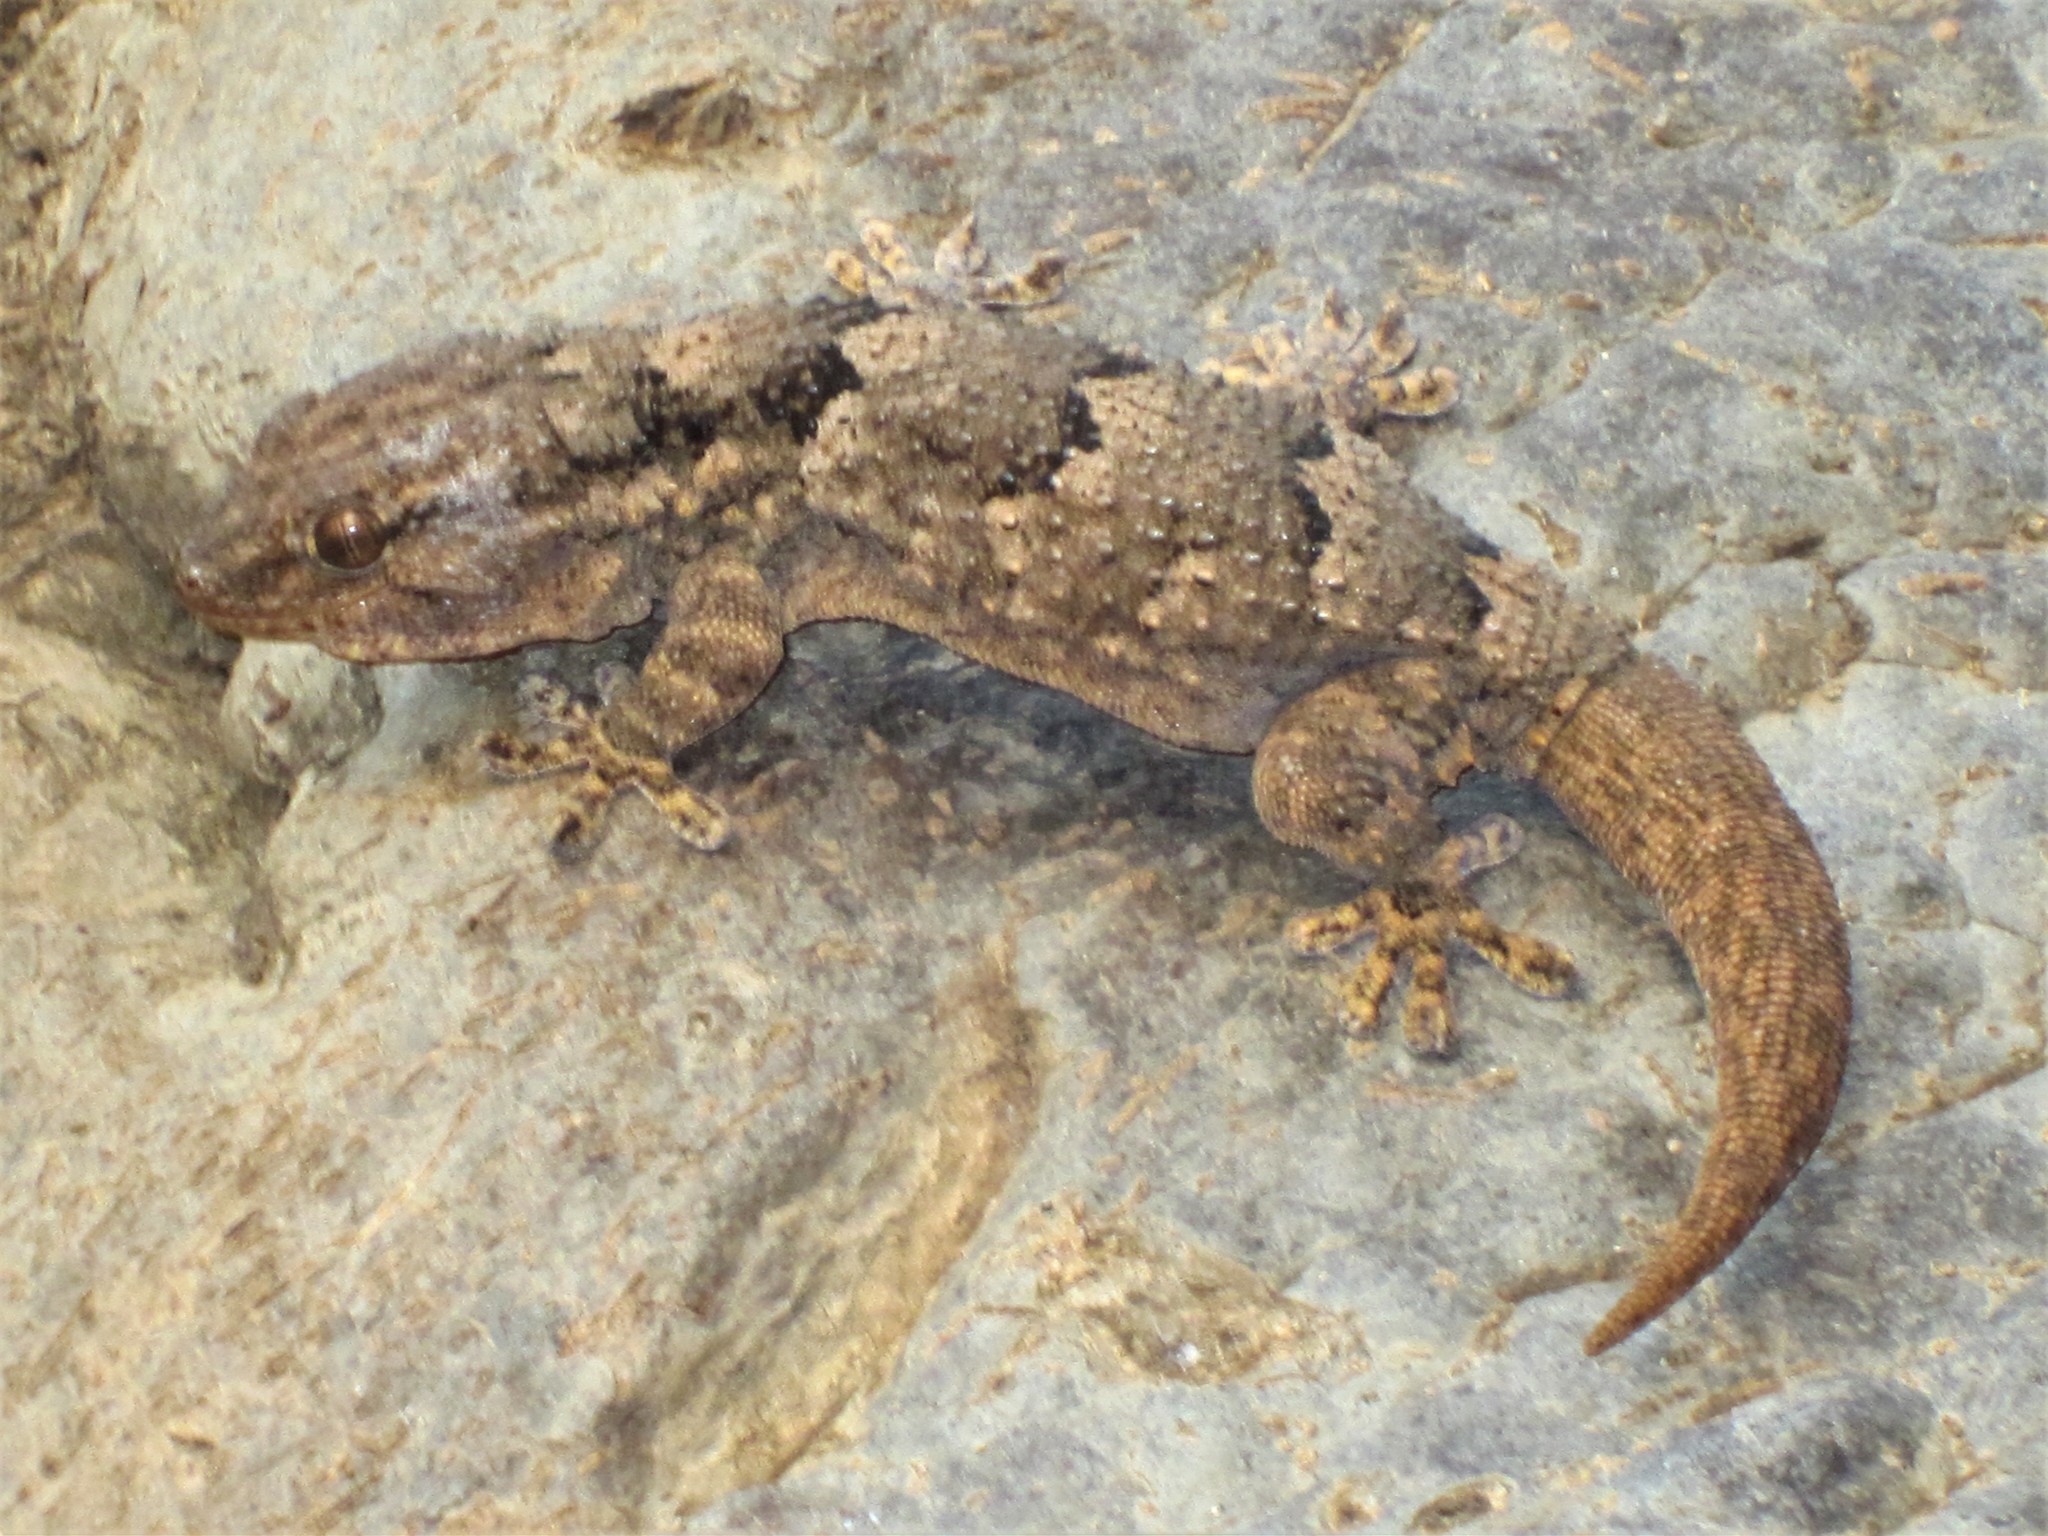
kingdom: Animalia
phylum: Chordata
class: Squamata
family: Phyllodactylidae
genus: Tarentola
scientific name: Tarentola senegambiae
